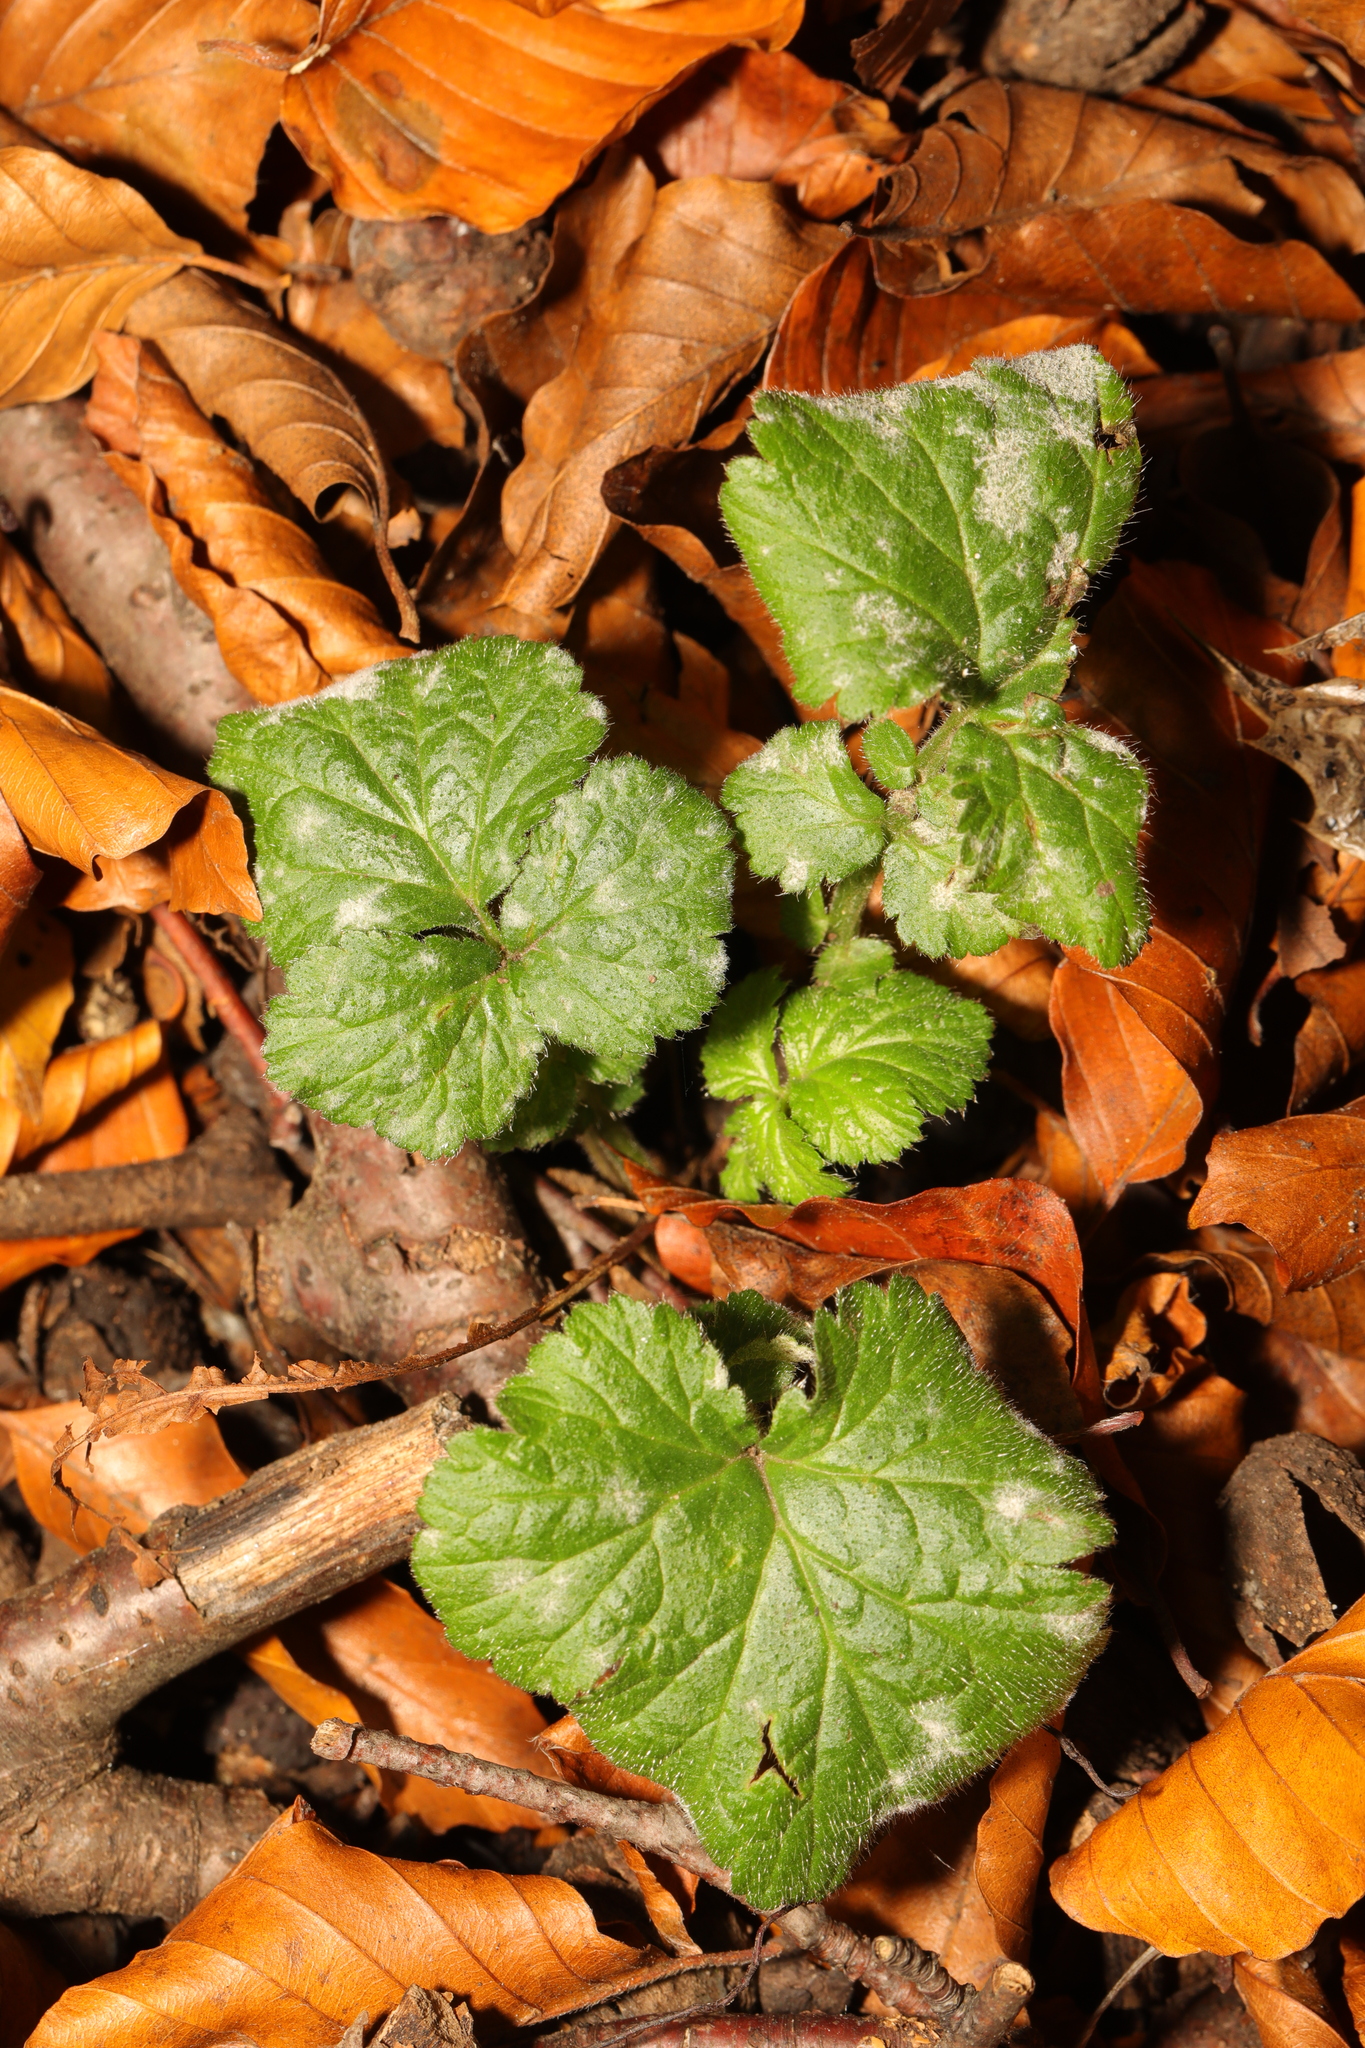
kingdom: Plantae
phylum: Tracheophyta
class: Magnoliopsida
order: Rosales
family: Rosaceae
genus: Geum
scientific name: Geum urbanum
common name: Wood avens
